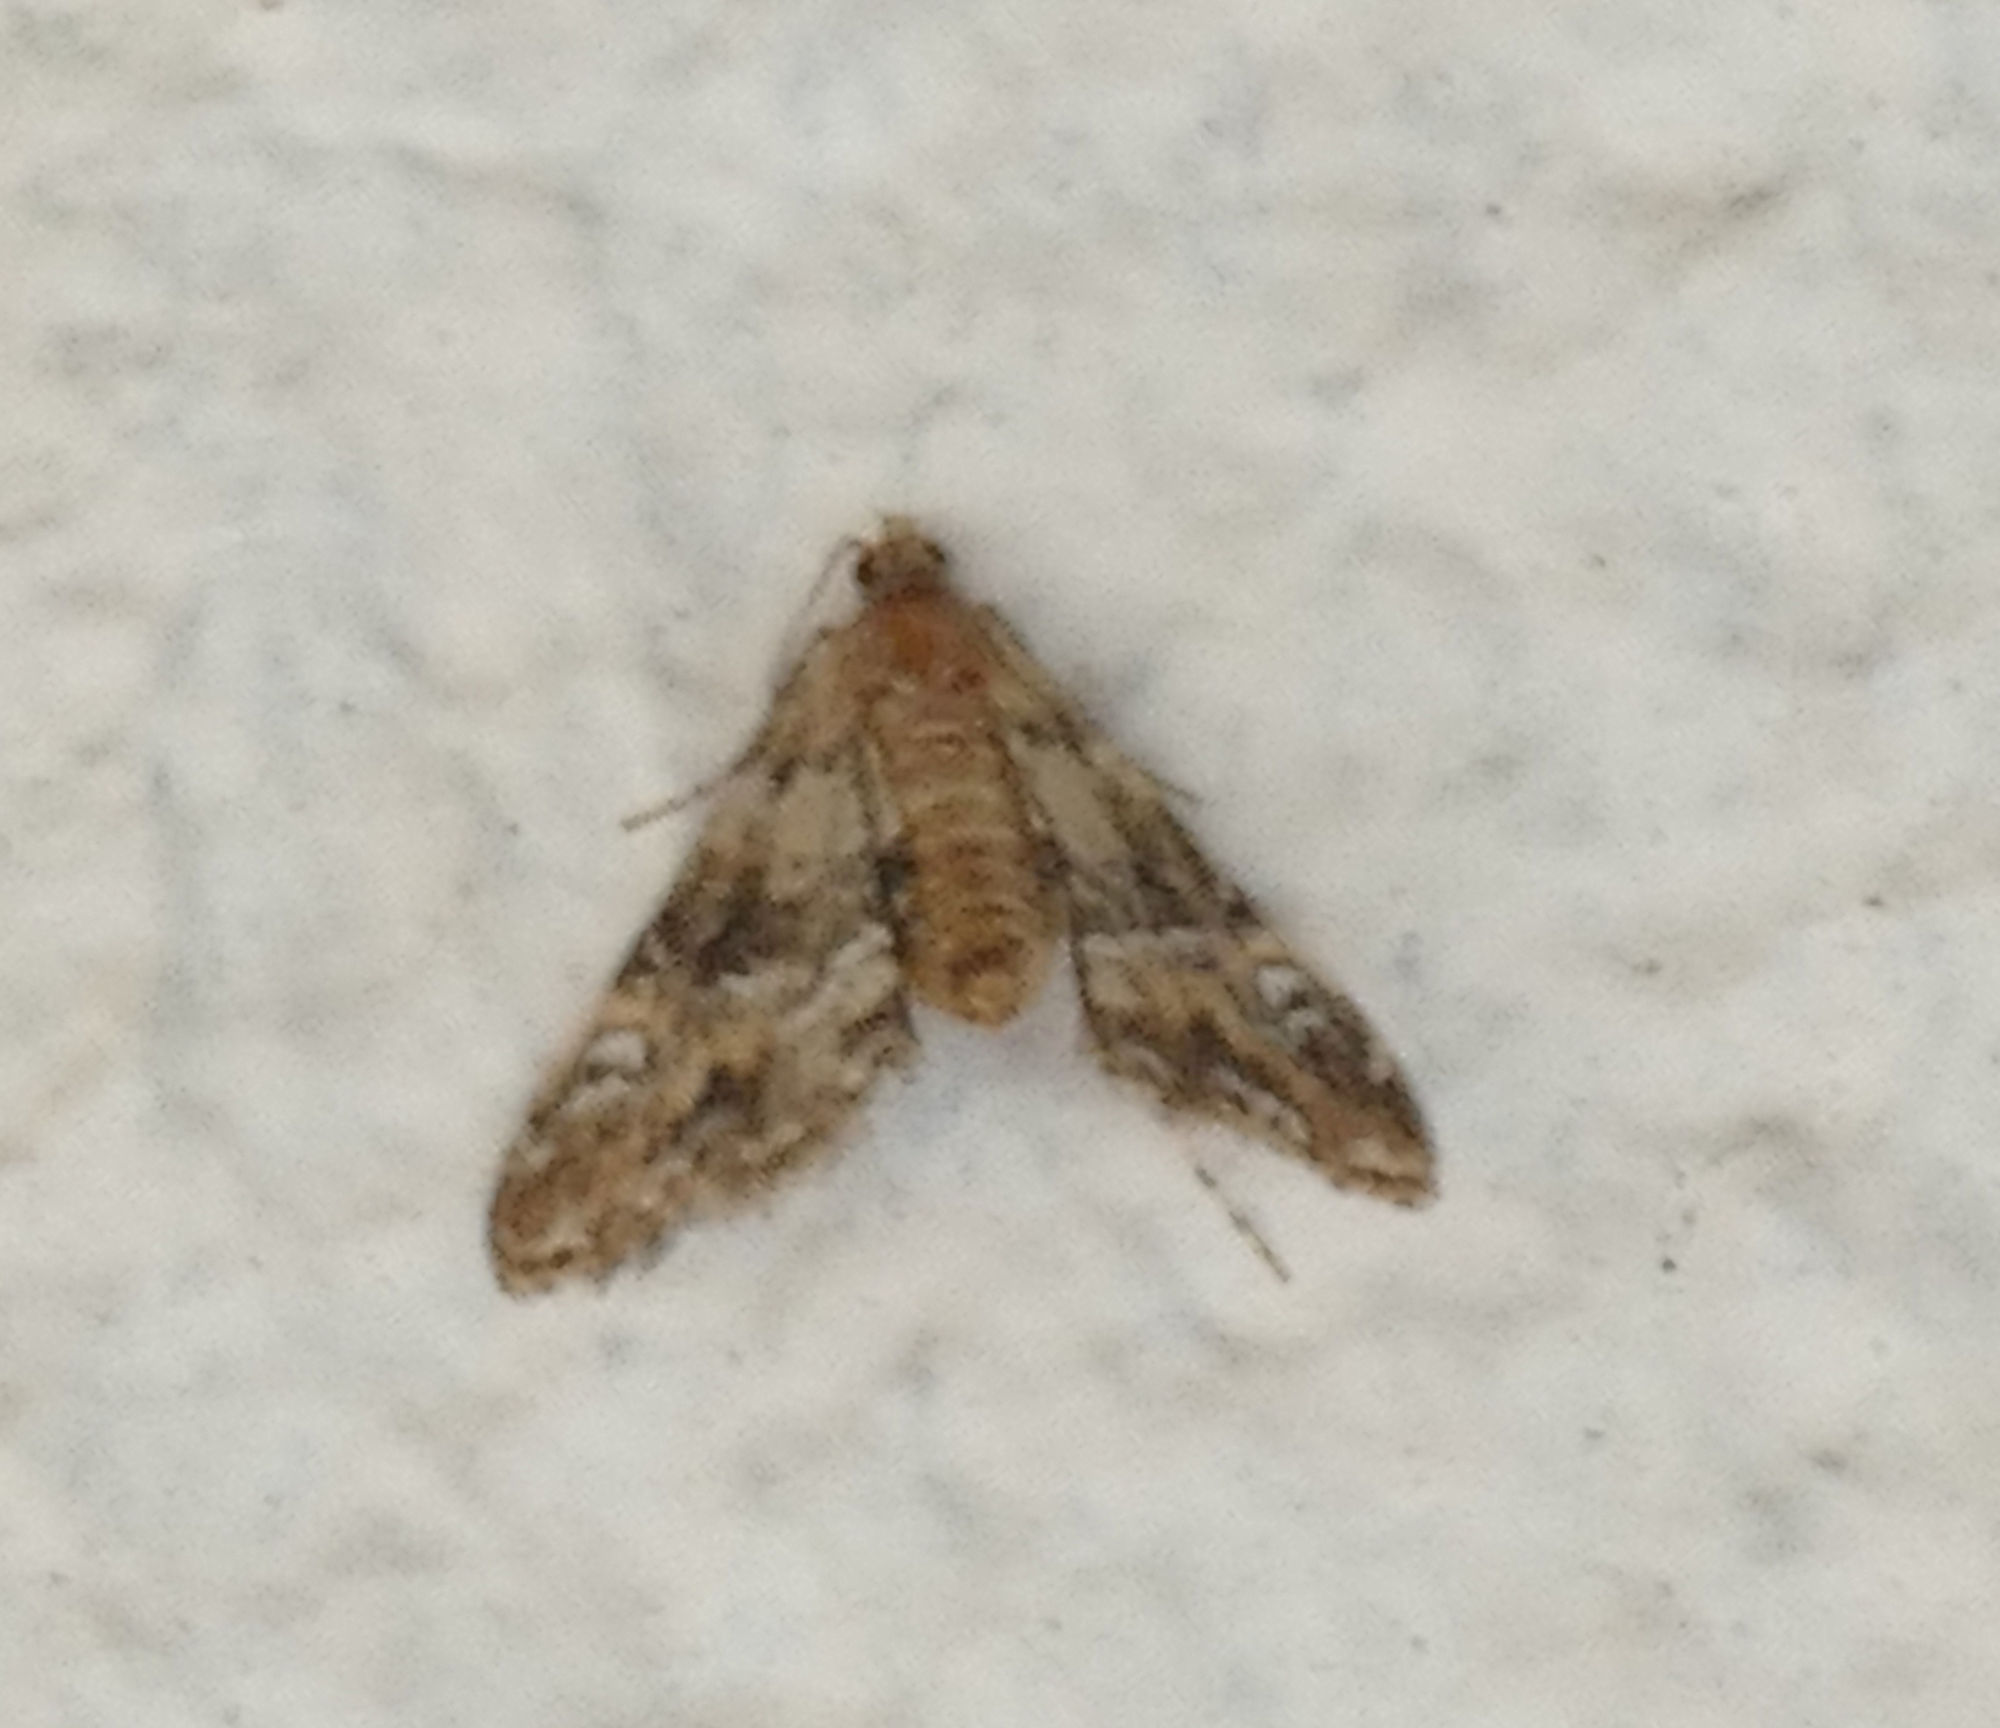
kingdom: Animalia
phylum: Arthropoda
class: Insecta
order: Lepidoptera
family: Crambidae
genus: Elophila
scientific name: Elophila obliteralis
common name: Waterlily leafcutter moth
